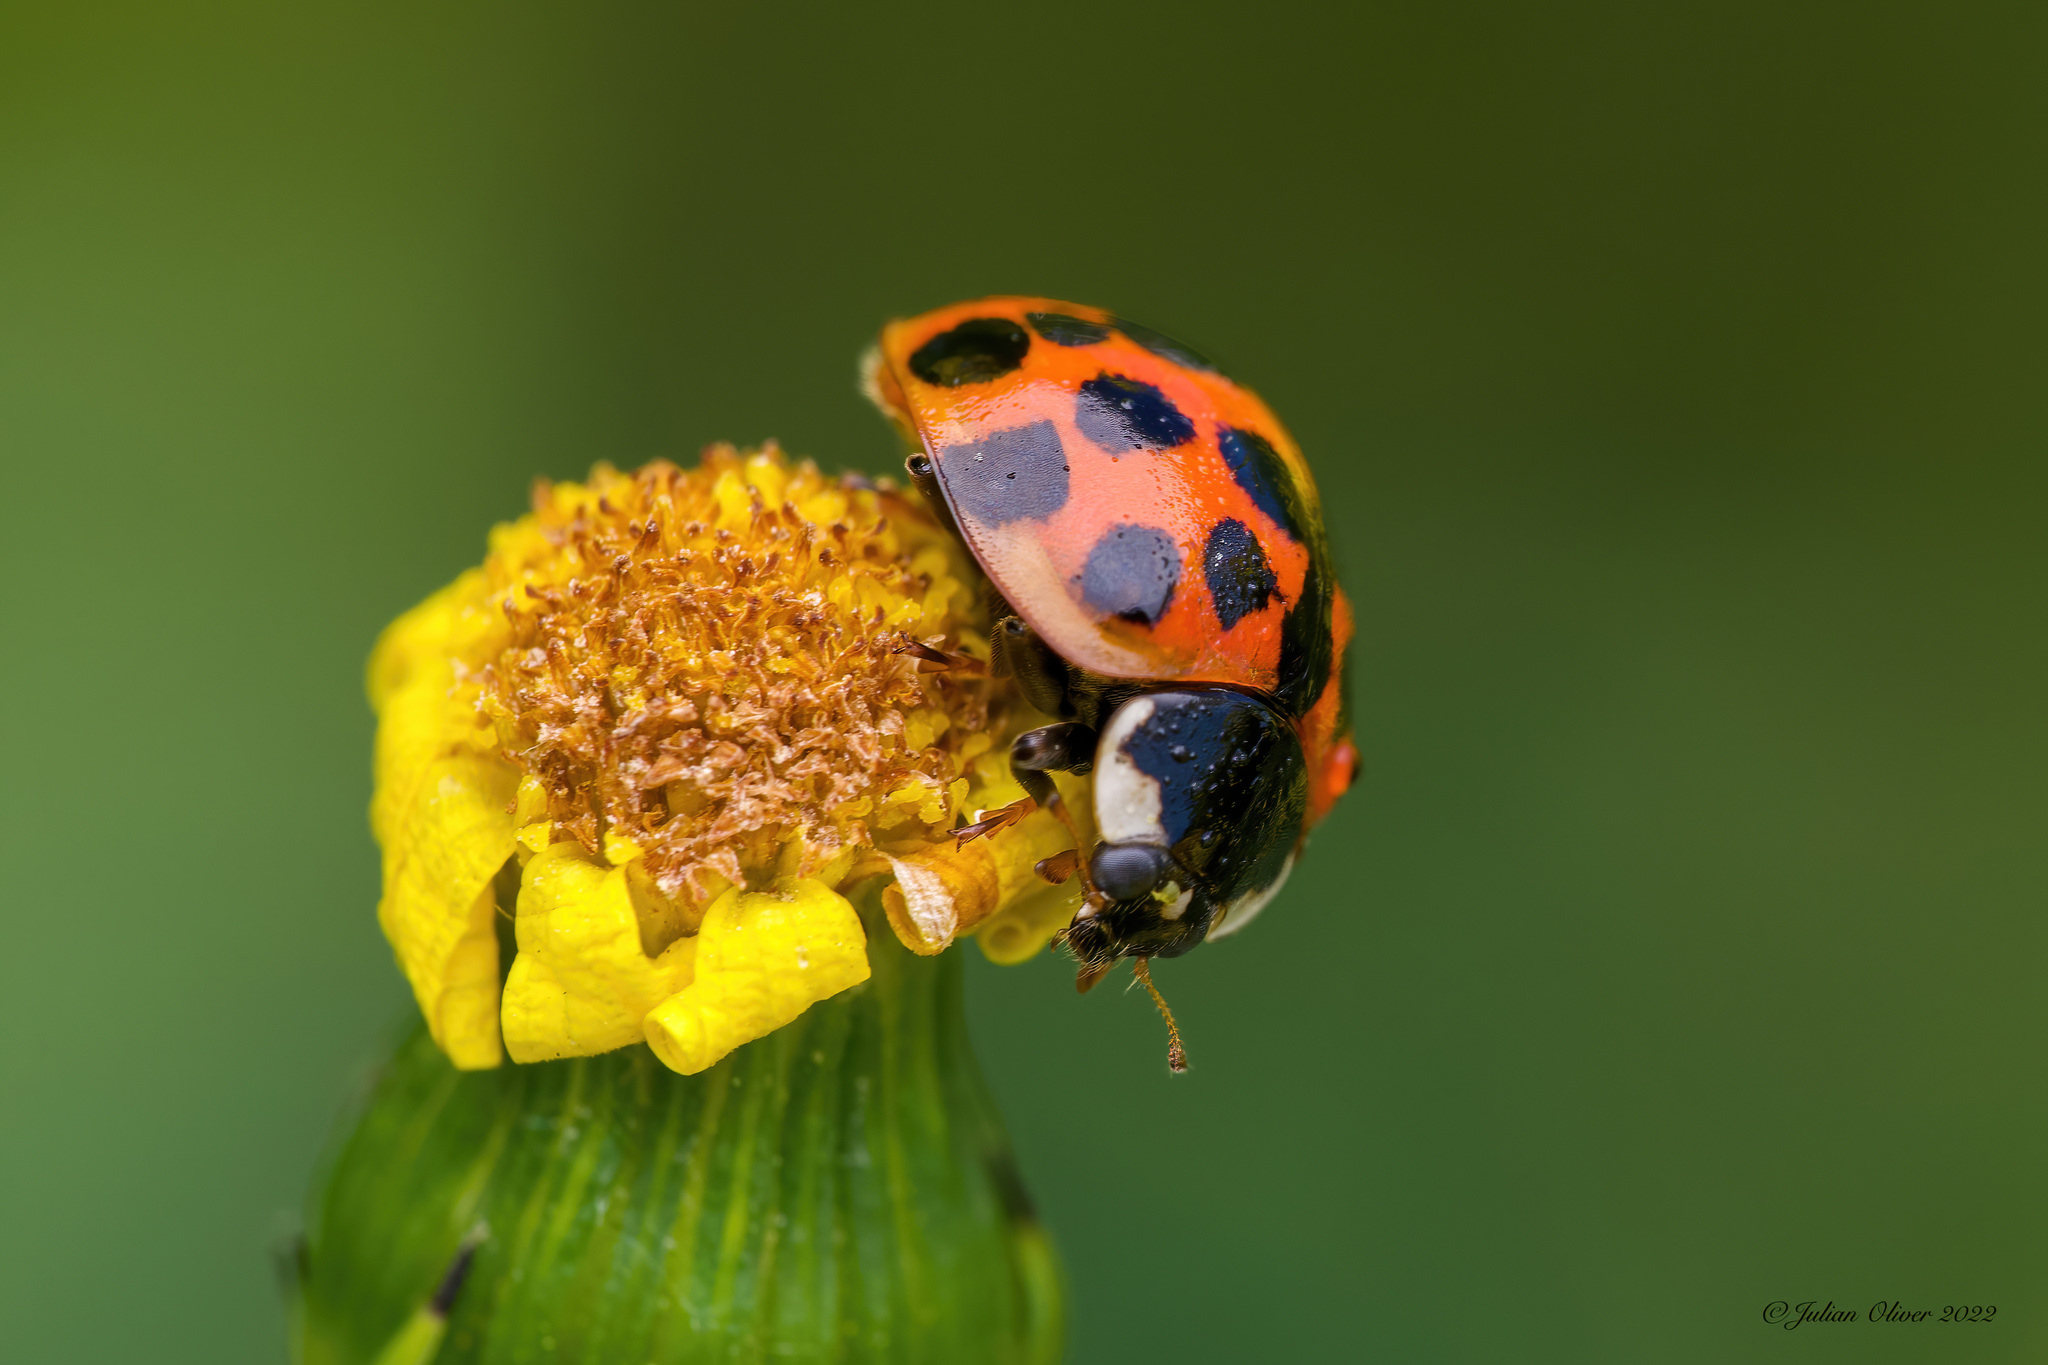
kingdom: Animalia
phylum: Arthropoda
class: Insecta
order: Coleoptera
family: Coccinellidae
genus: Harmonia
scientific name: Harmonia axyridis
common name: Harlequin ladybird
